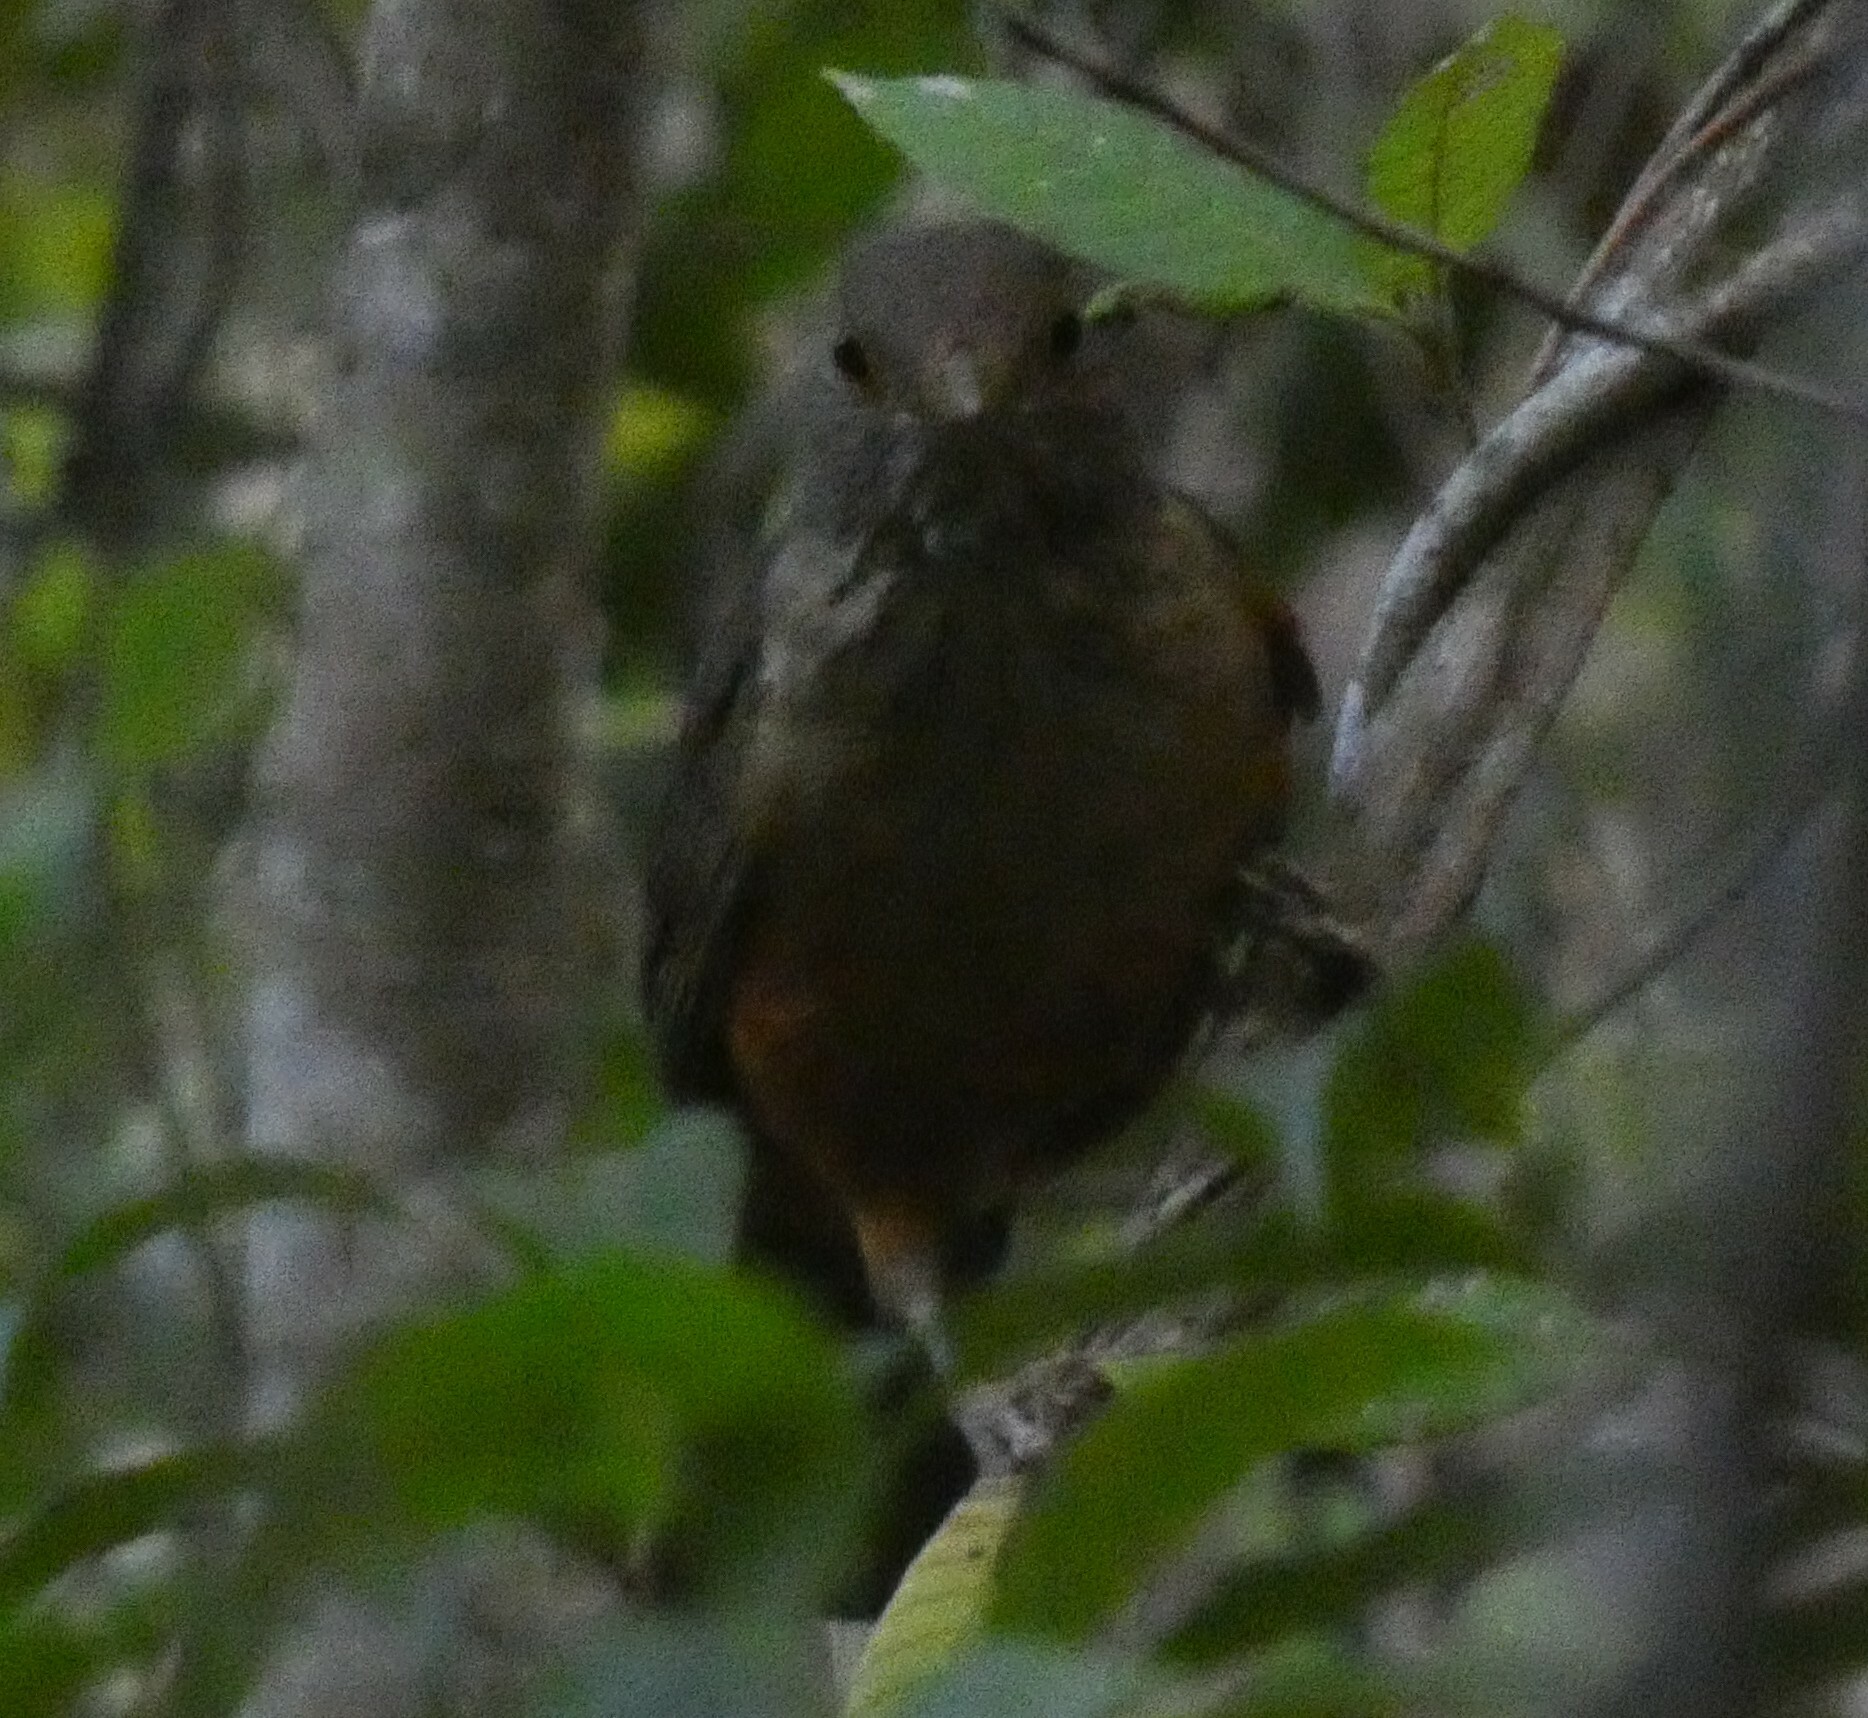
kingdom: Animalia
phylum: Chordata
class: Aves
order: Passeriformes
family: Turdidae
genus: Turdus
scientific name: Turdus rufiventris
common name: Rufous-bellied thrush
